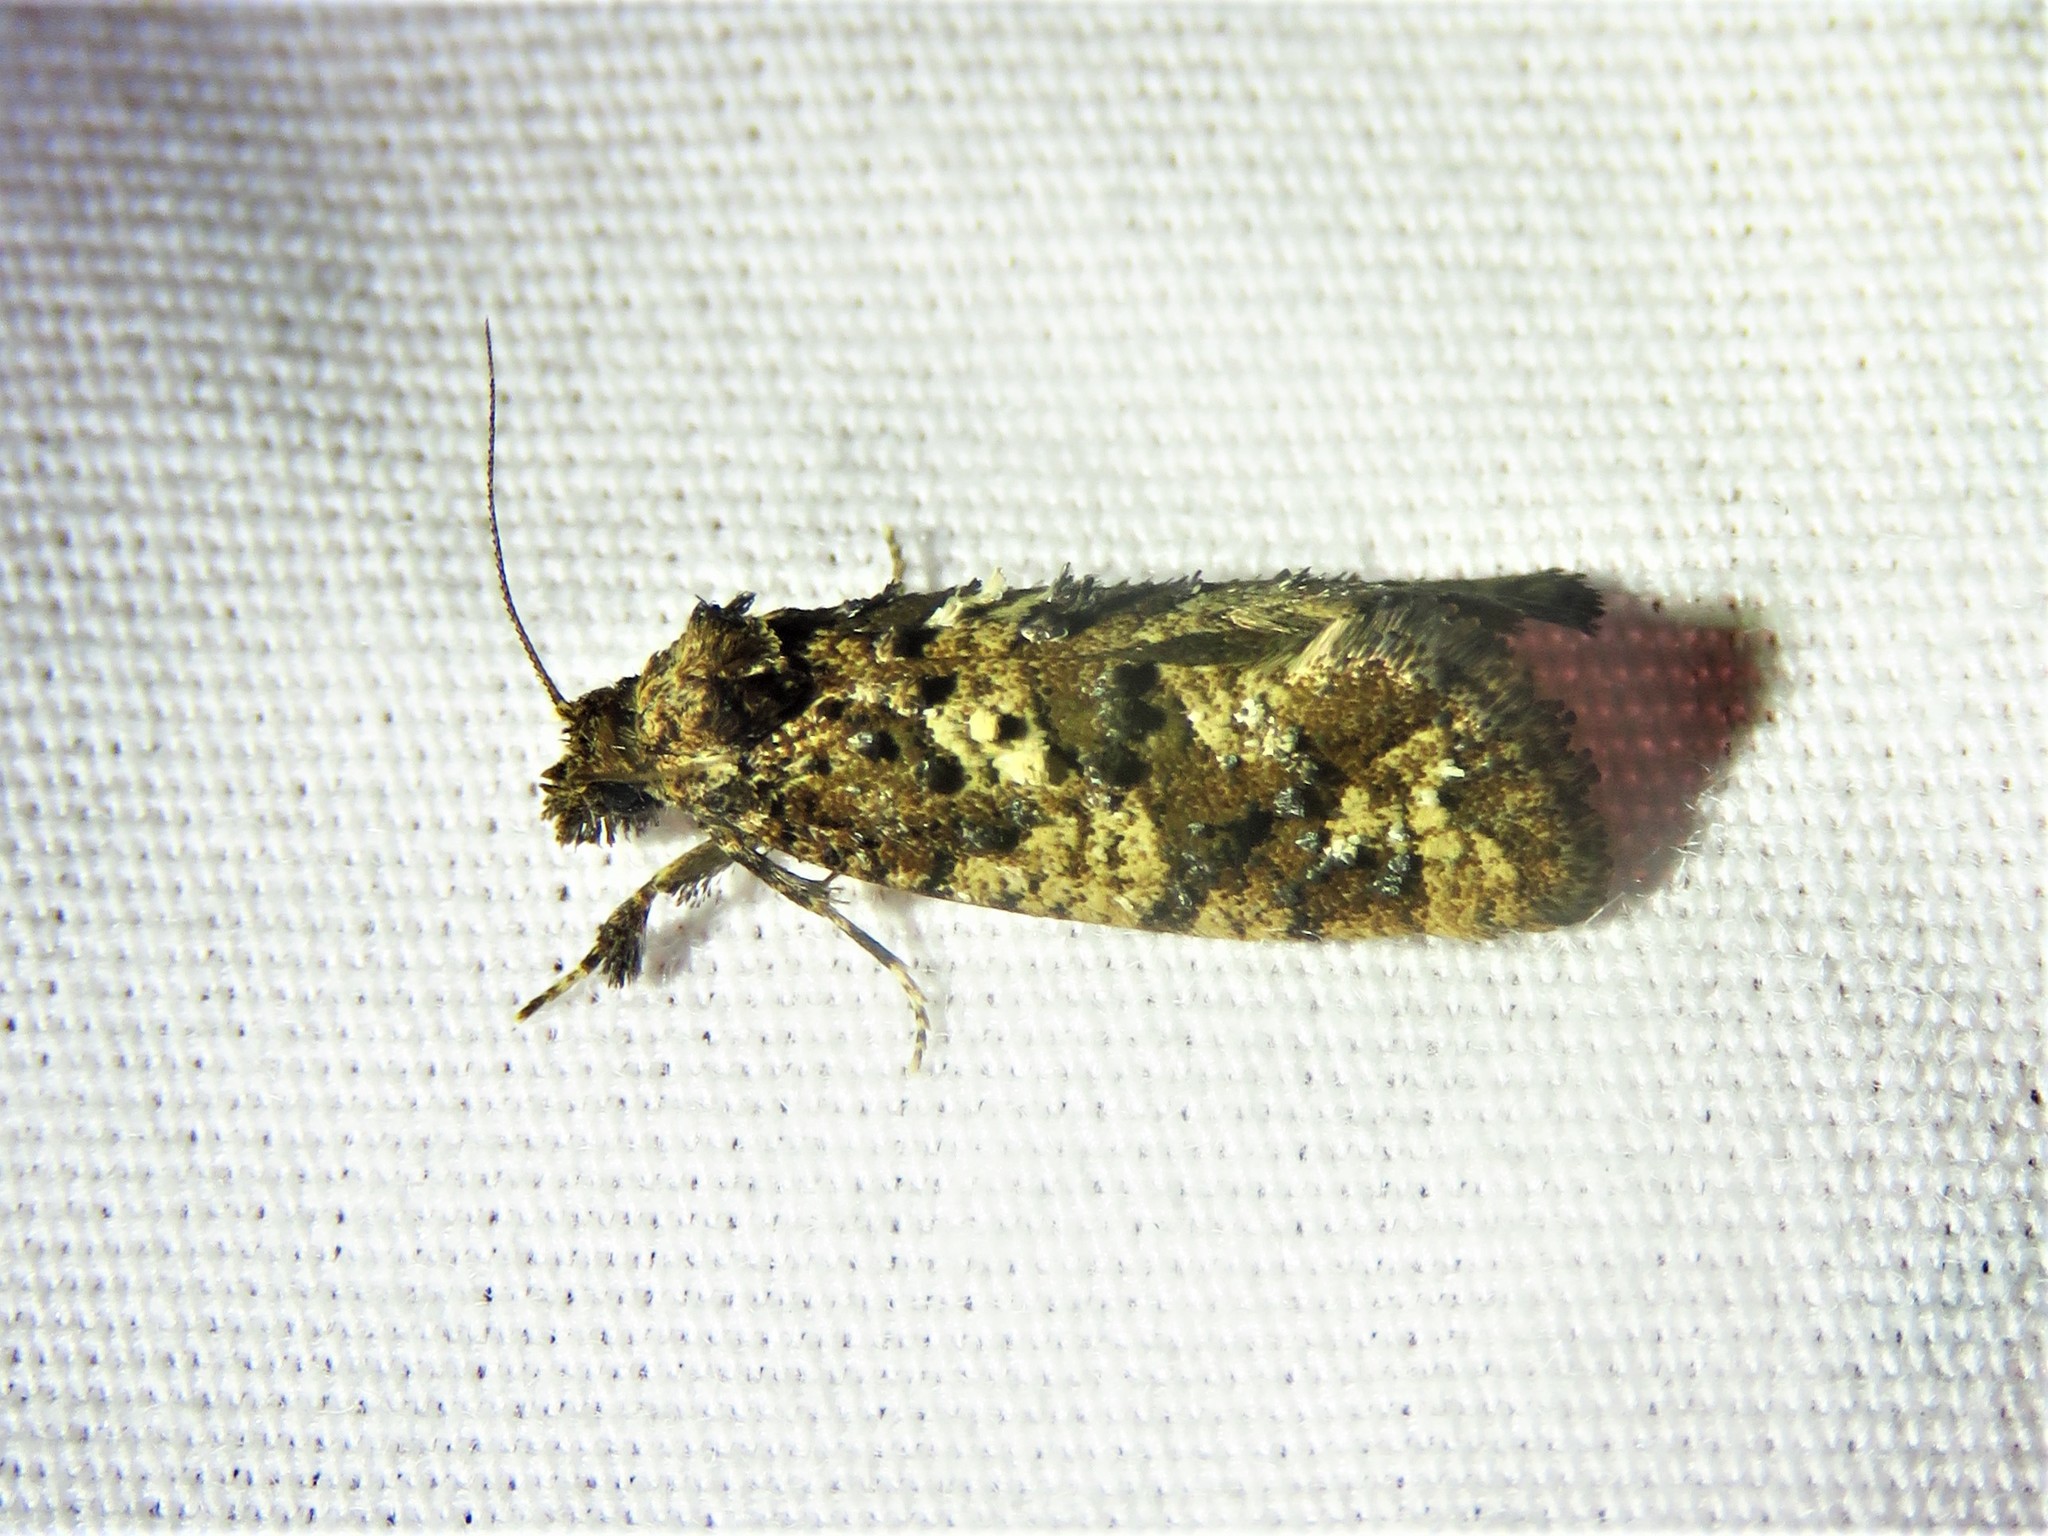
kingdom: Animalia
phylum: Arthropoda
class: Insecta
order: Lepidoptera
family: Tineidae
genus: Acrolophus
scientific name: Acrolophus cressoni
